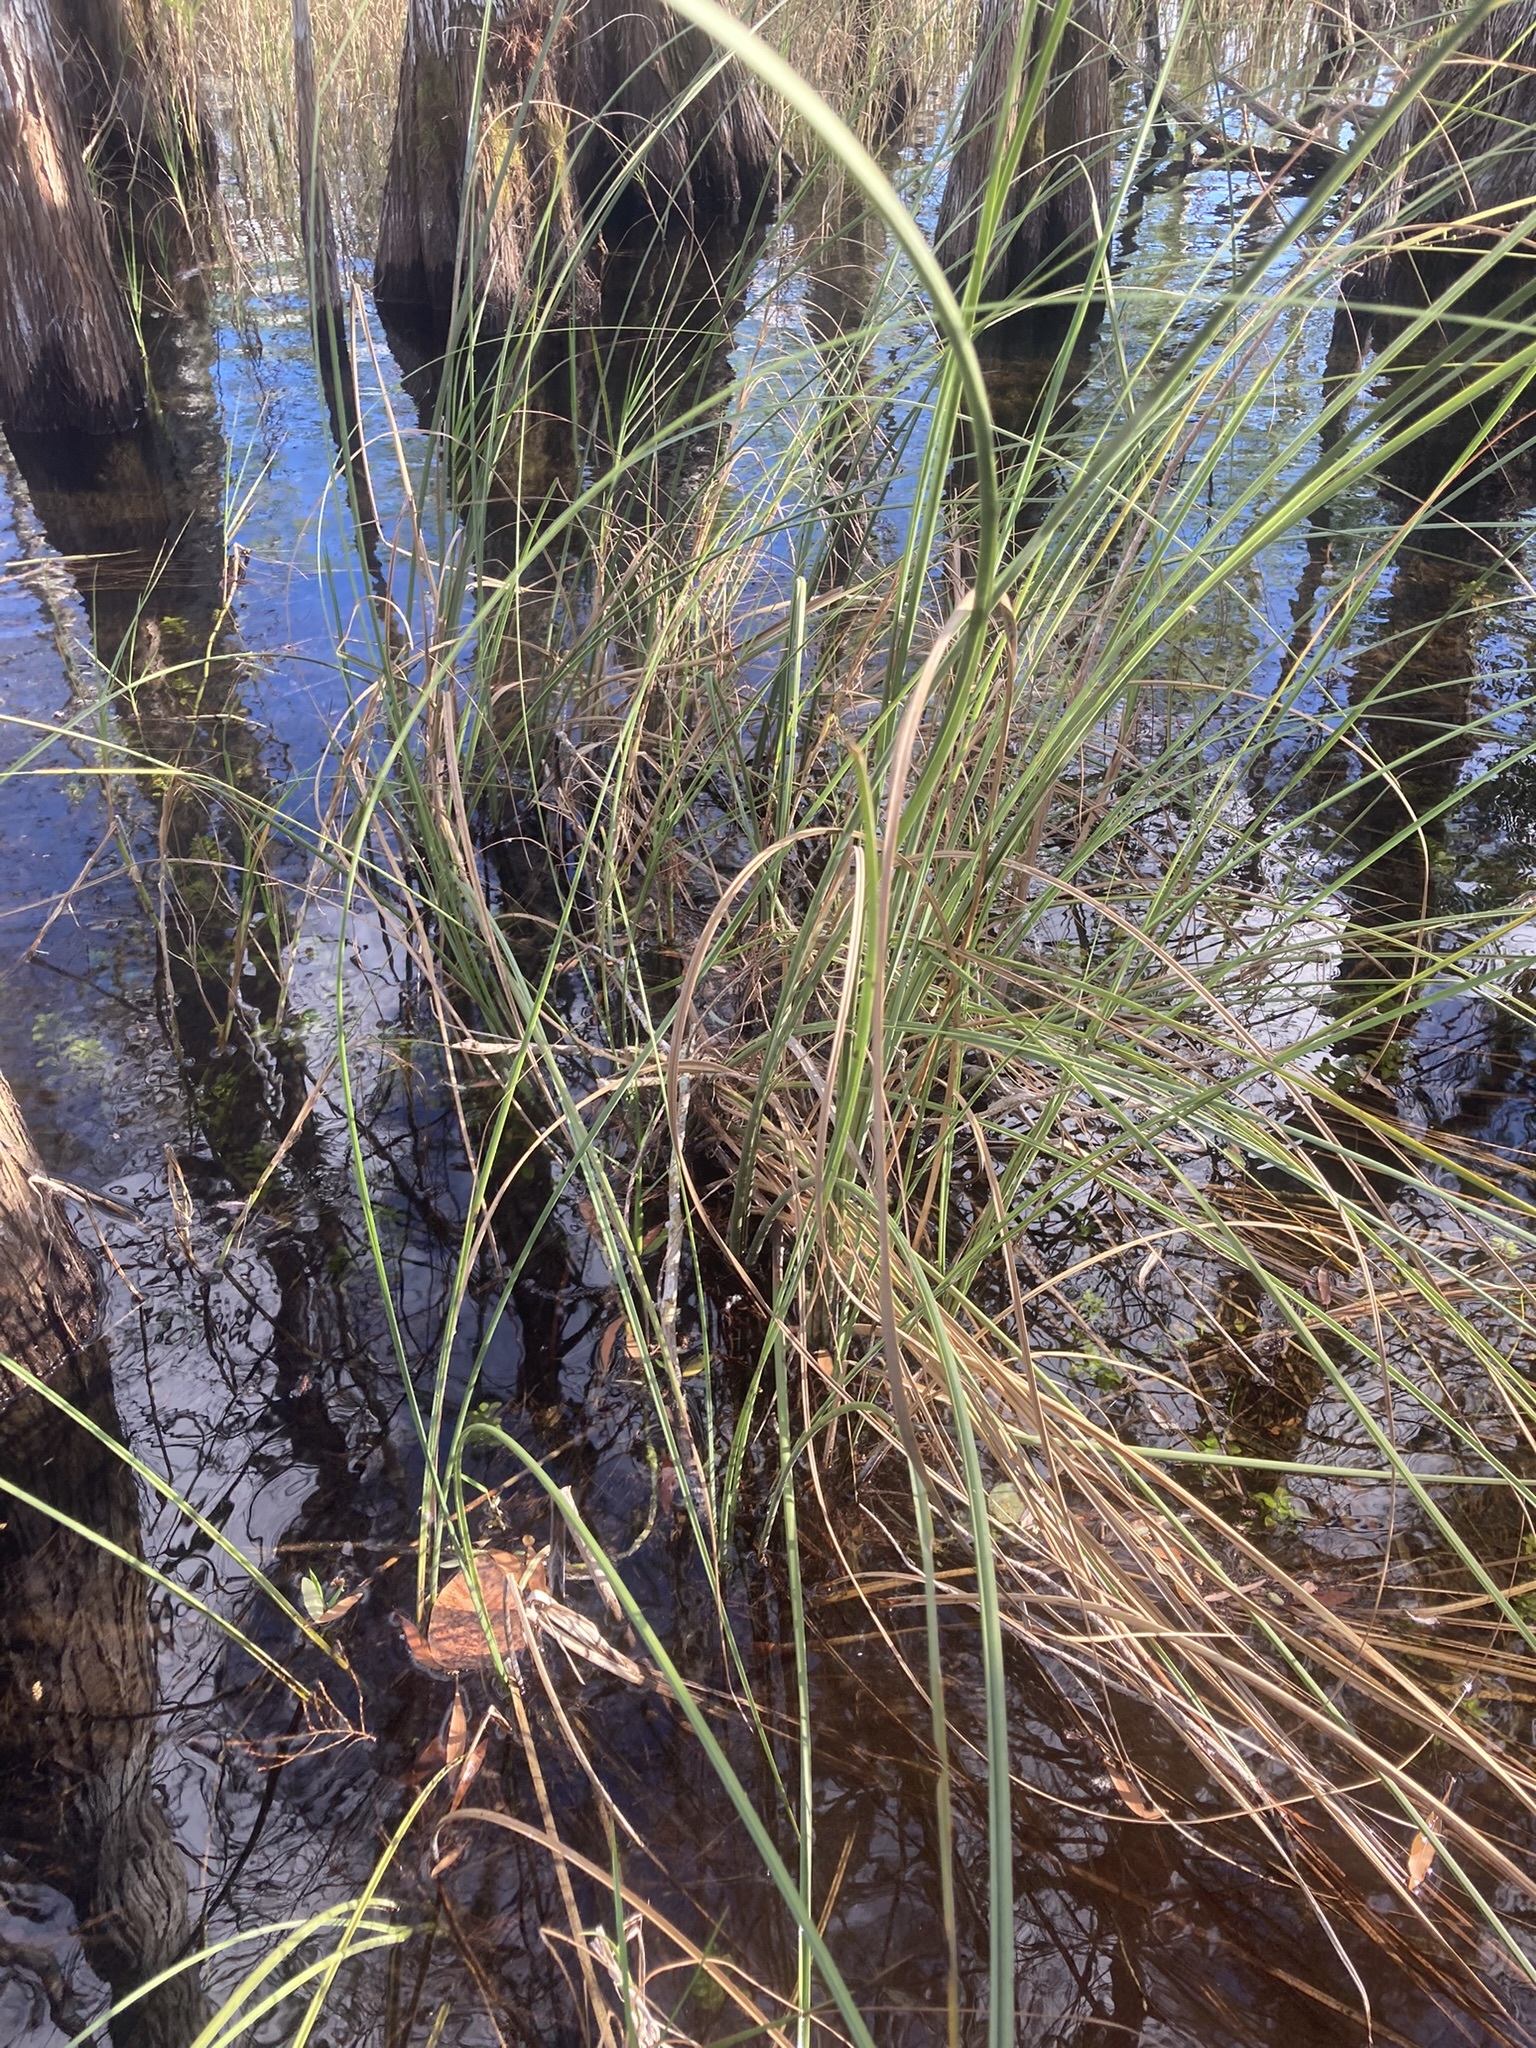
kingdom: Plantae
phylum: Tracheophyta
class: Liliopsida
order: Poales
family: Cyperaceae
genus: Cladium
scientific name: Cladium mariscus
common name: Great fen-sedge
